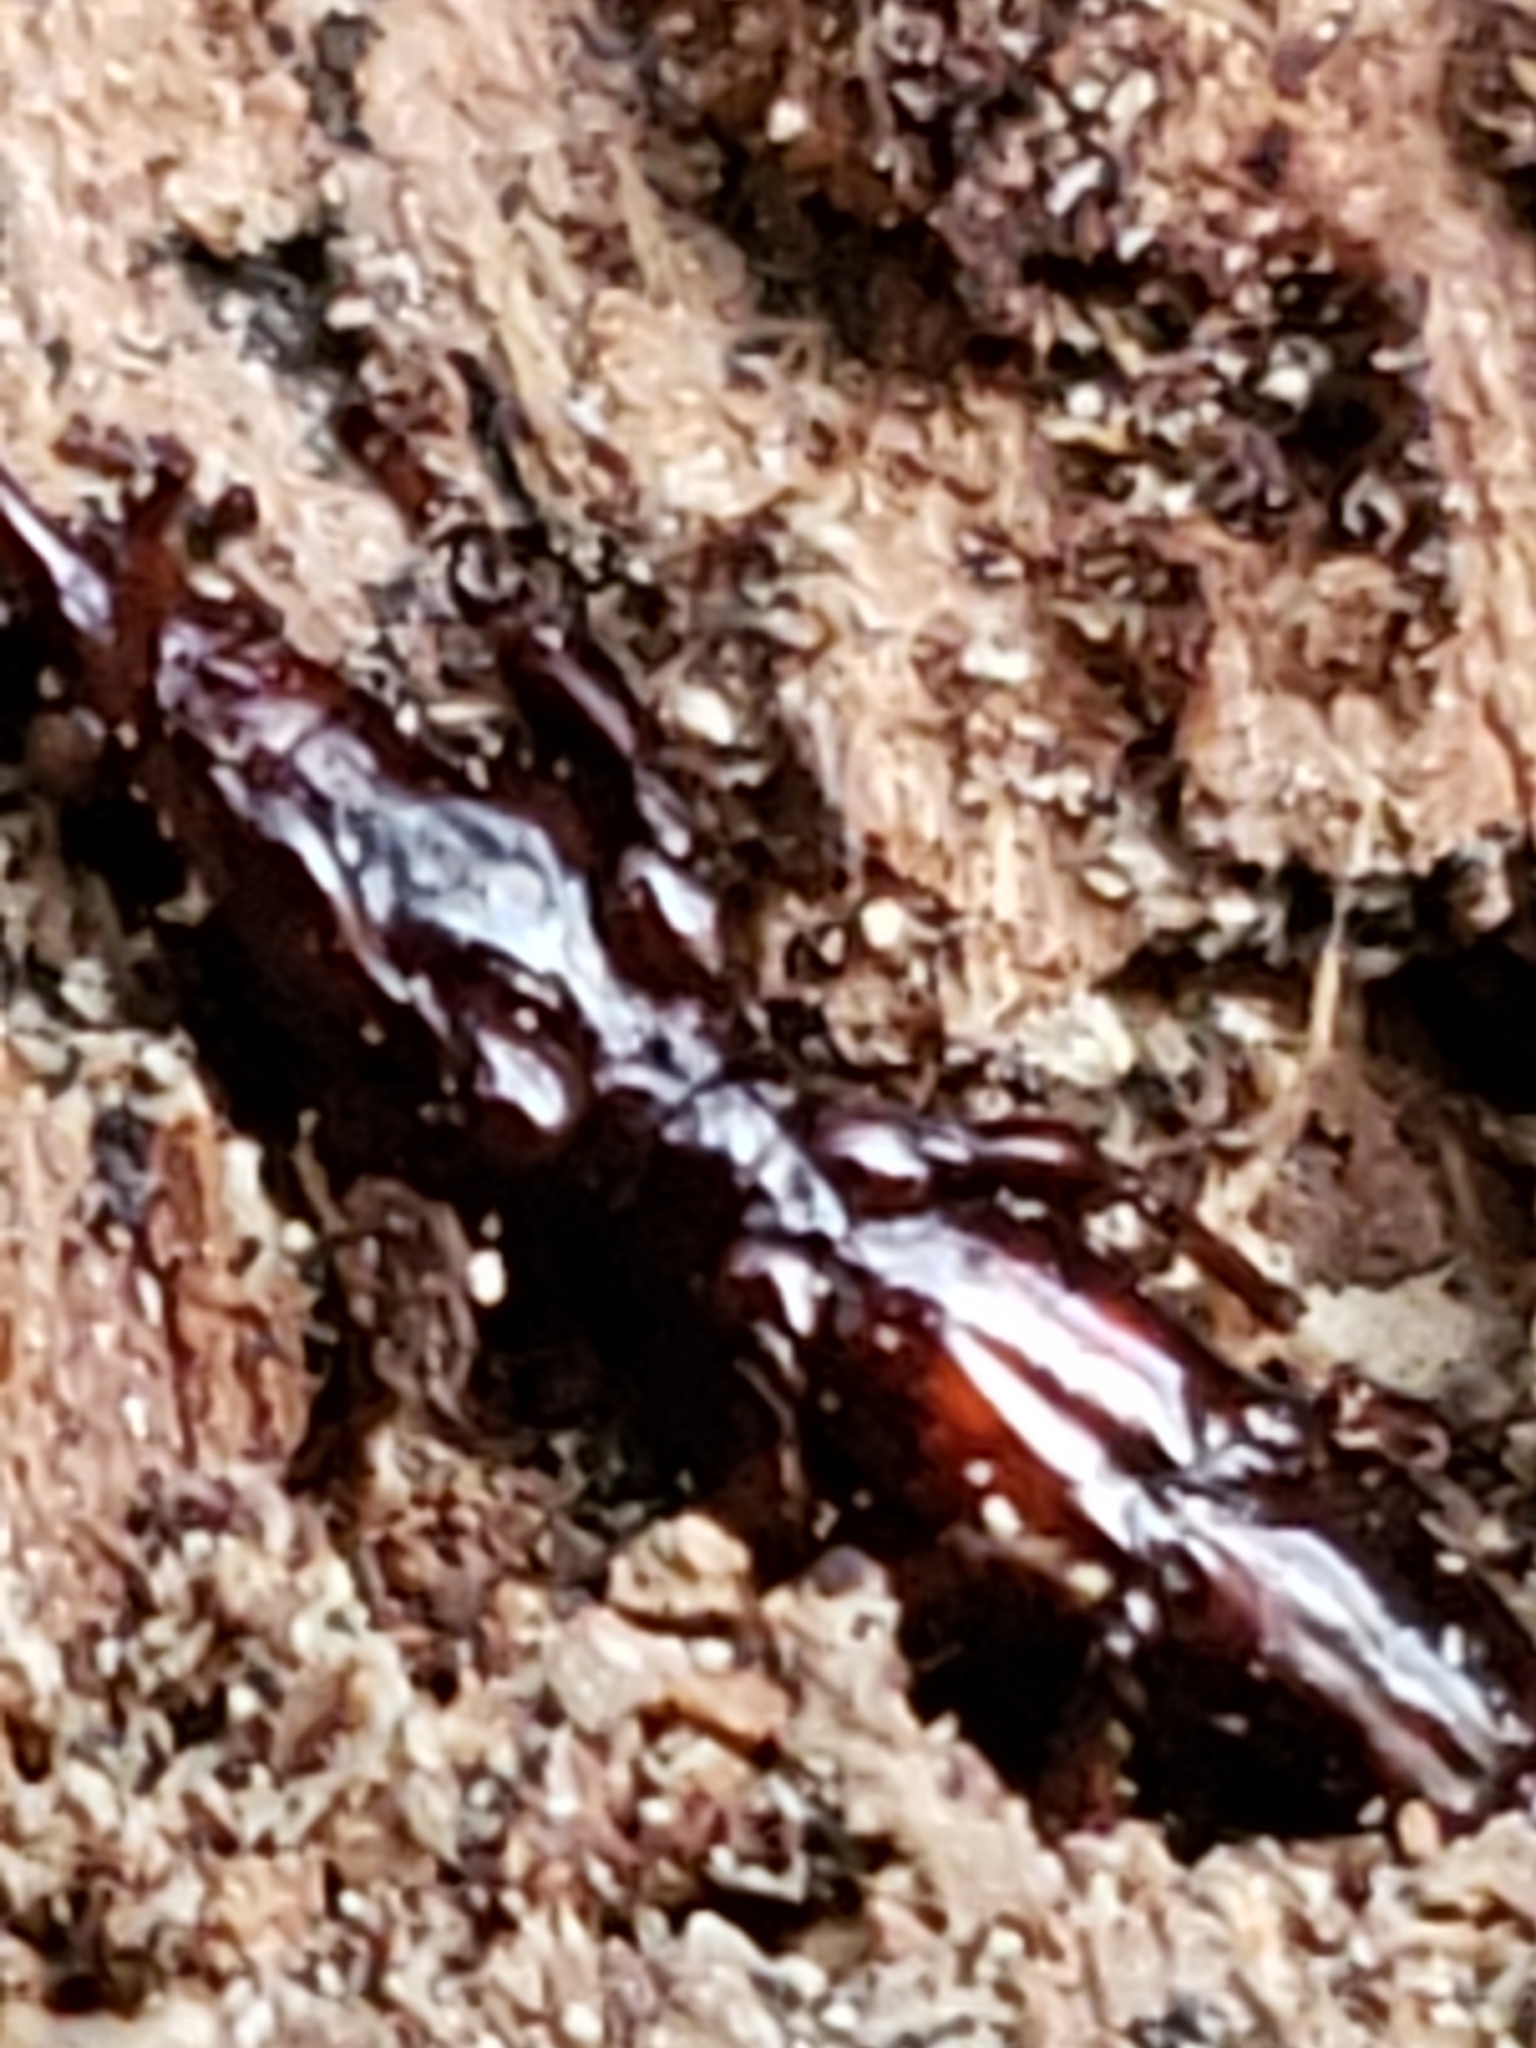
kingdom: Animalia
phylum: Arthropoda
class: Insecta
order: Coleoptera
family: Brentidae
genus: Arrenodes
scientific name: Arrenodes minutus
